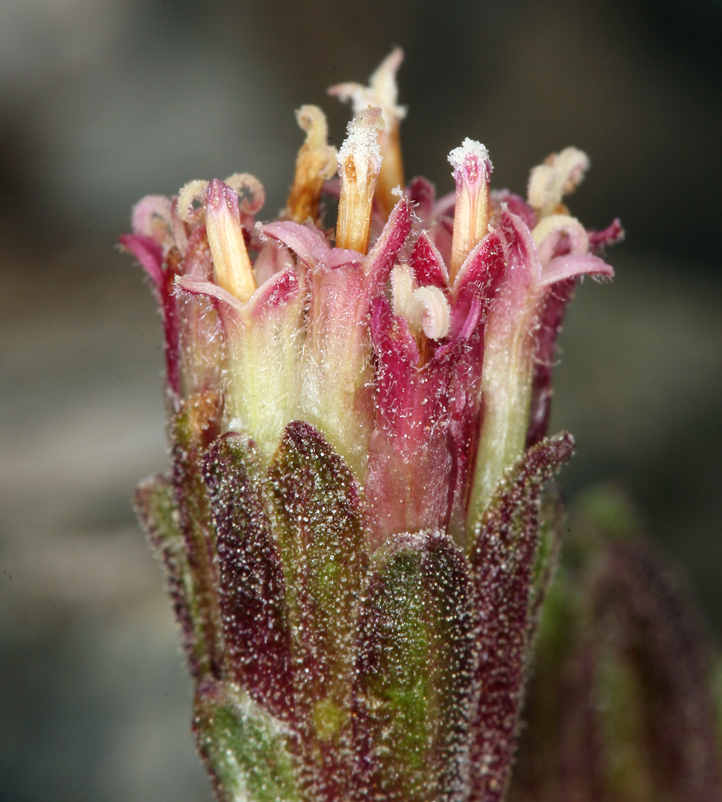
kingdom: Plantae
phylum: Tracheophyta
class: Magnoliopsida
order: Asterales
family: Asteraceae
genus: Chaenactis
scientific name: Chaenactis douglasii
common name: Hoary pincushion
